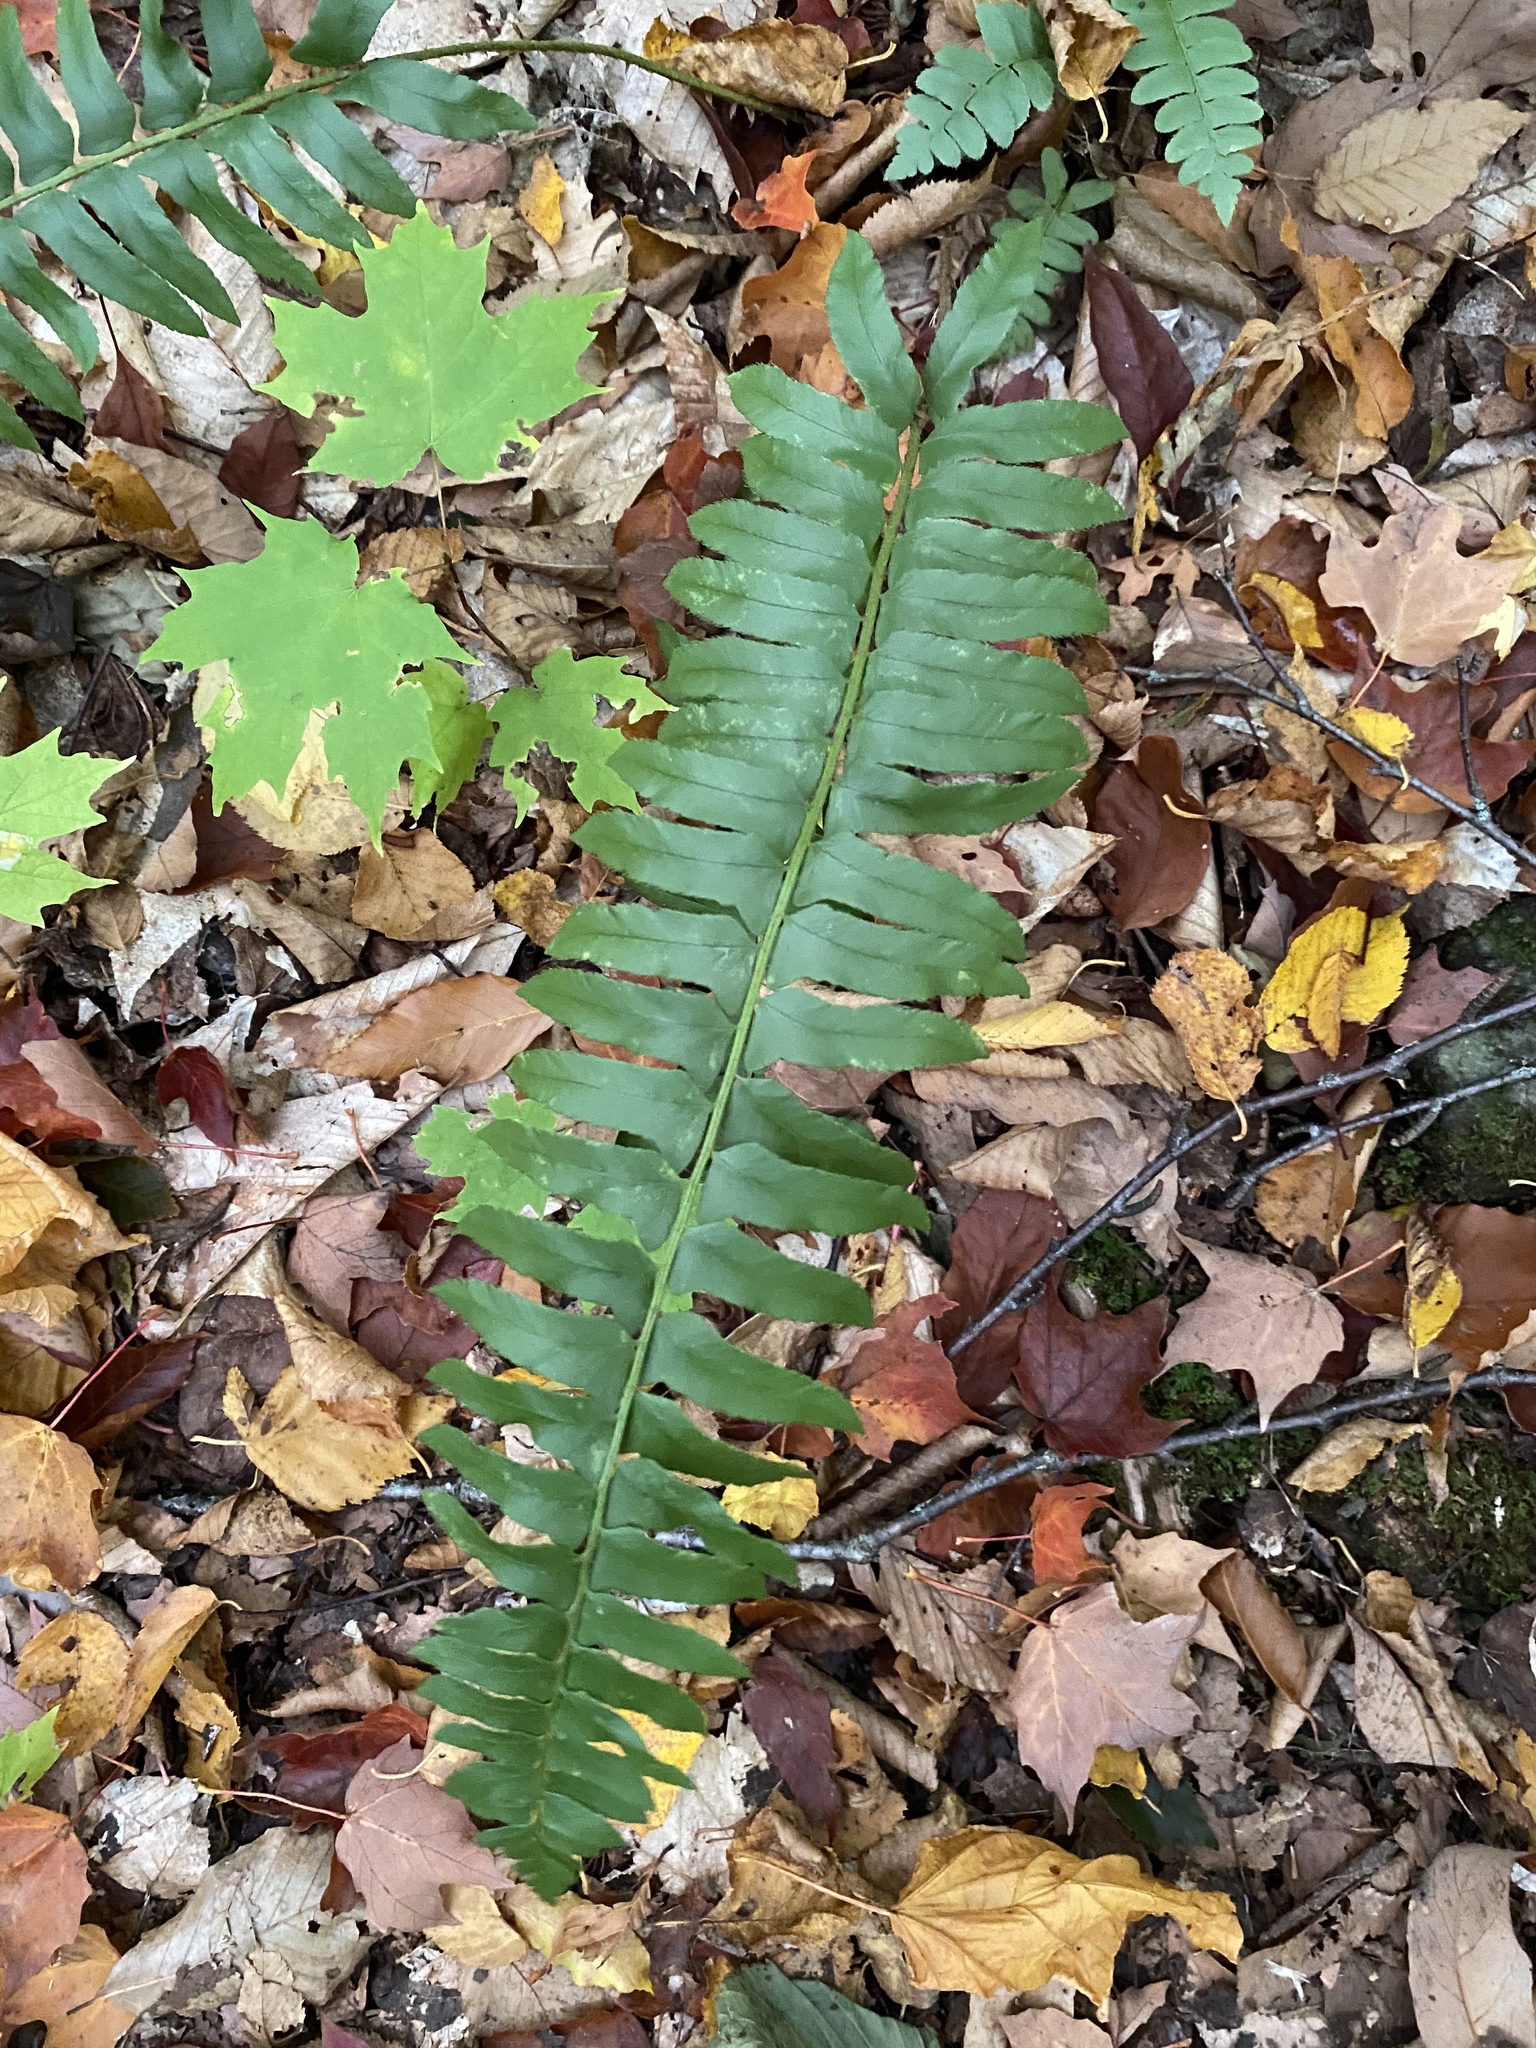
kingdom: Plantae
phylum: Tracheophyta
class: Polypodiopsida
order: Polypodiales
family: Dryopteridaceae
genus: Polystichum
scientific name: Polystichum acrostichoides
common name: Christmas fern
